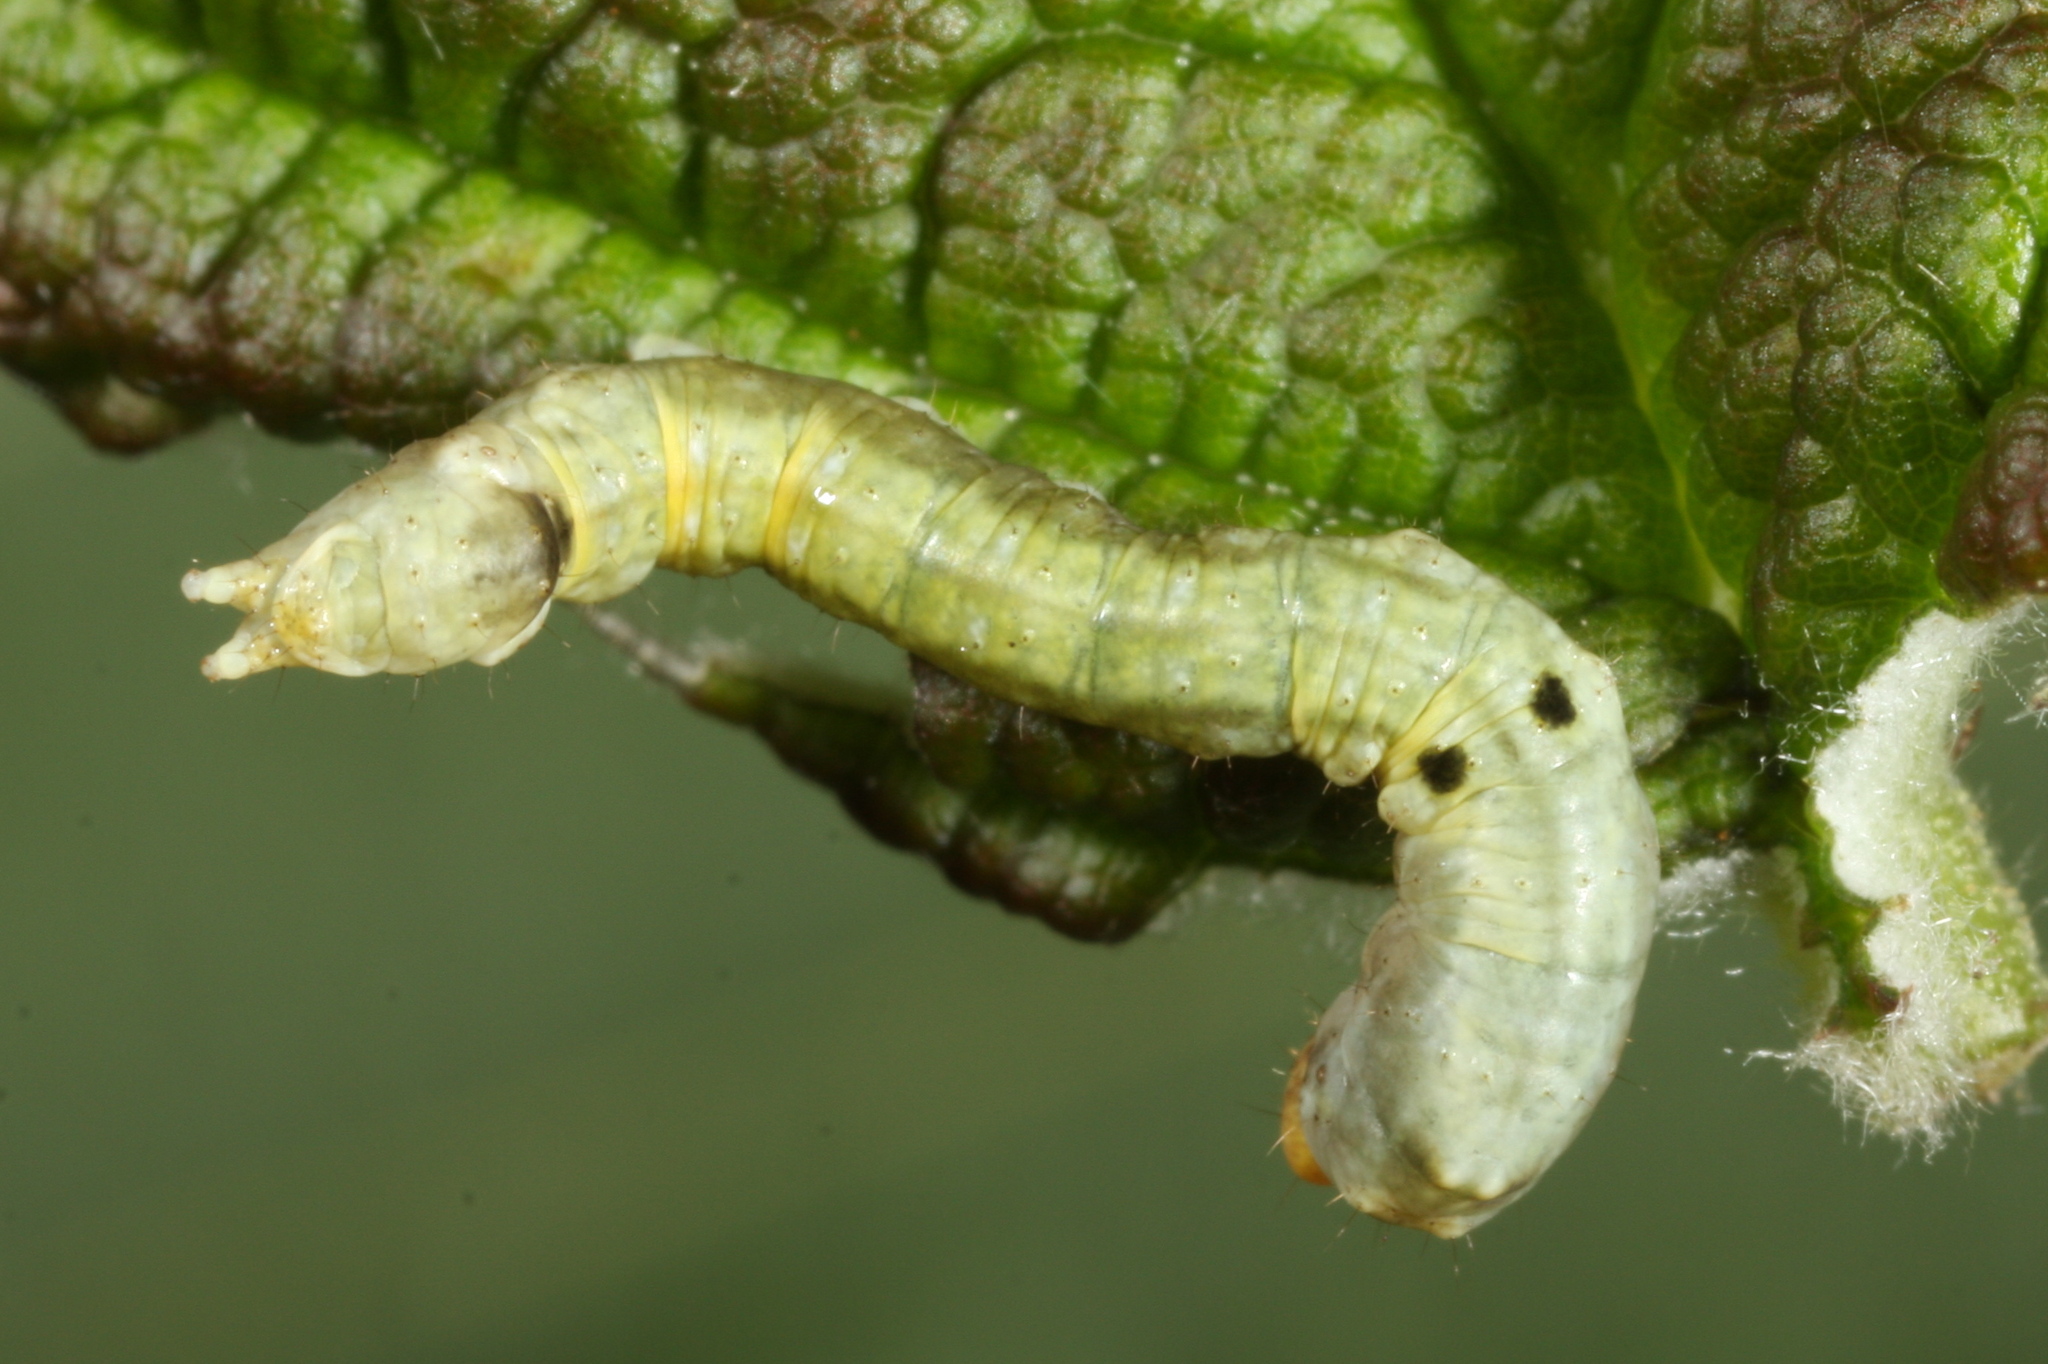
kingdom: Animalia
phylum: Arthropoda
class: Insecta
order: Lepidoptera
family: Drepanidae
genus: Thyatira
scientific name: Thyatira batis
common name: Peach blossom
